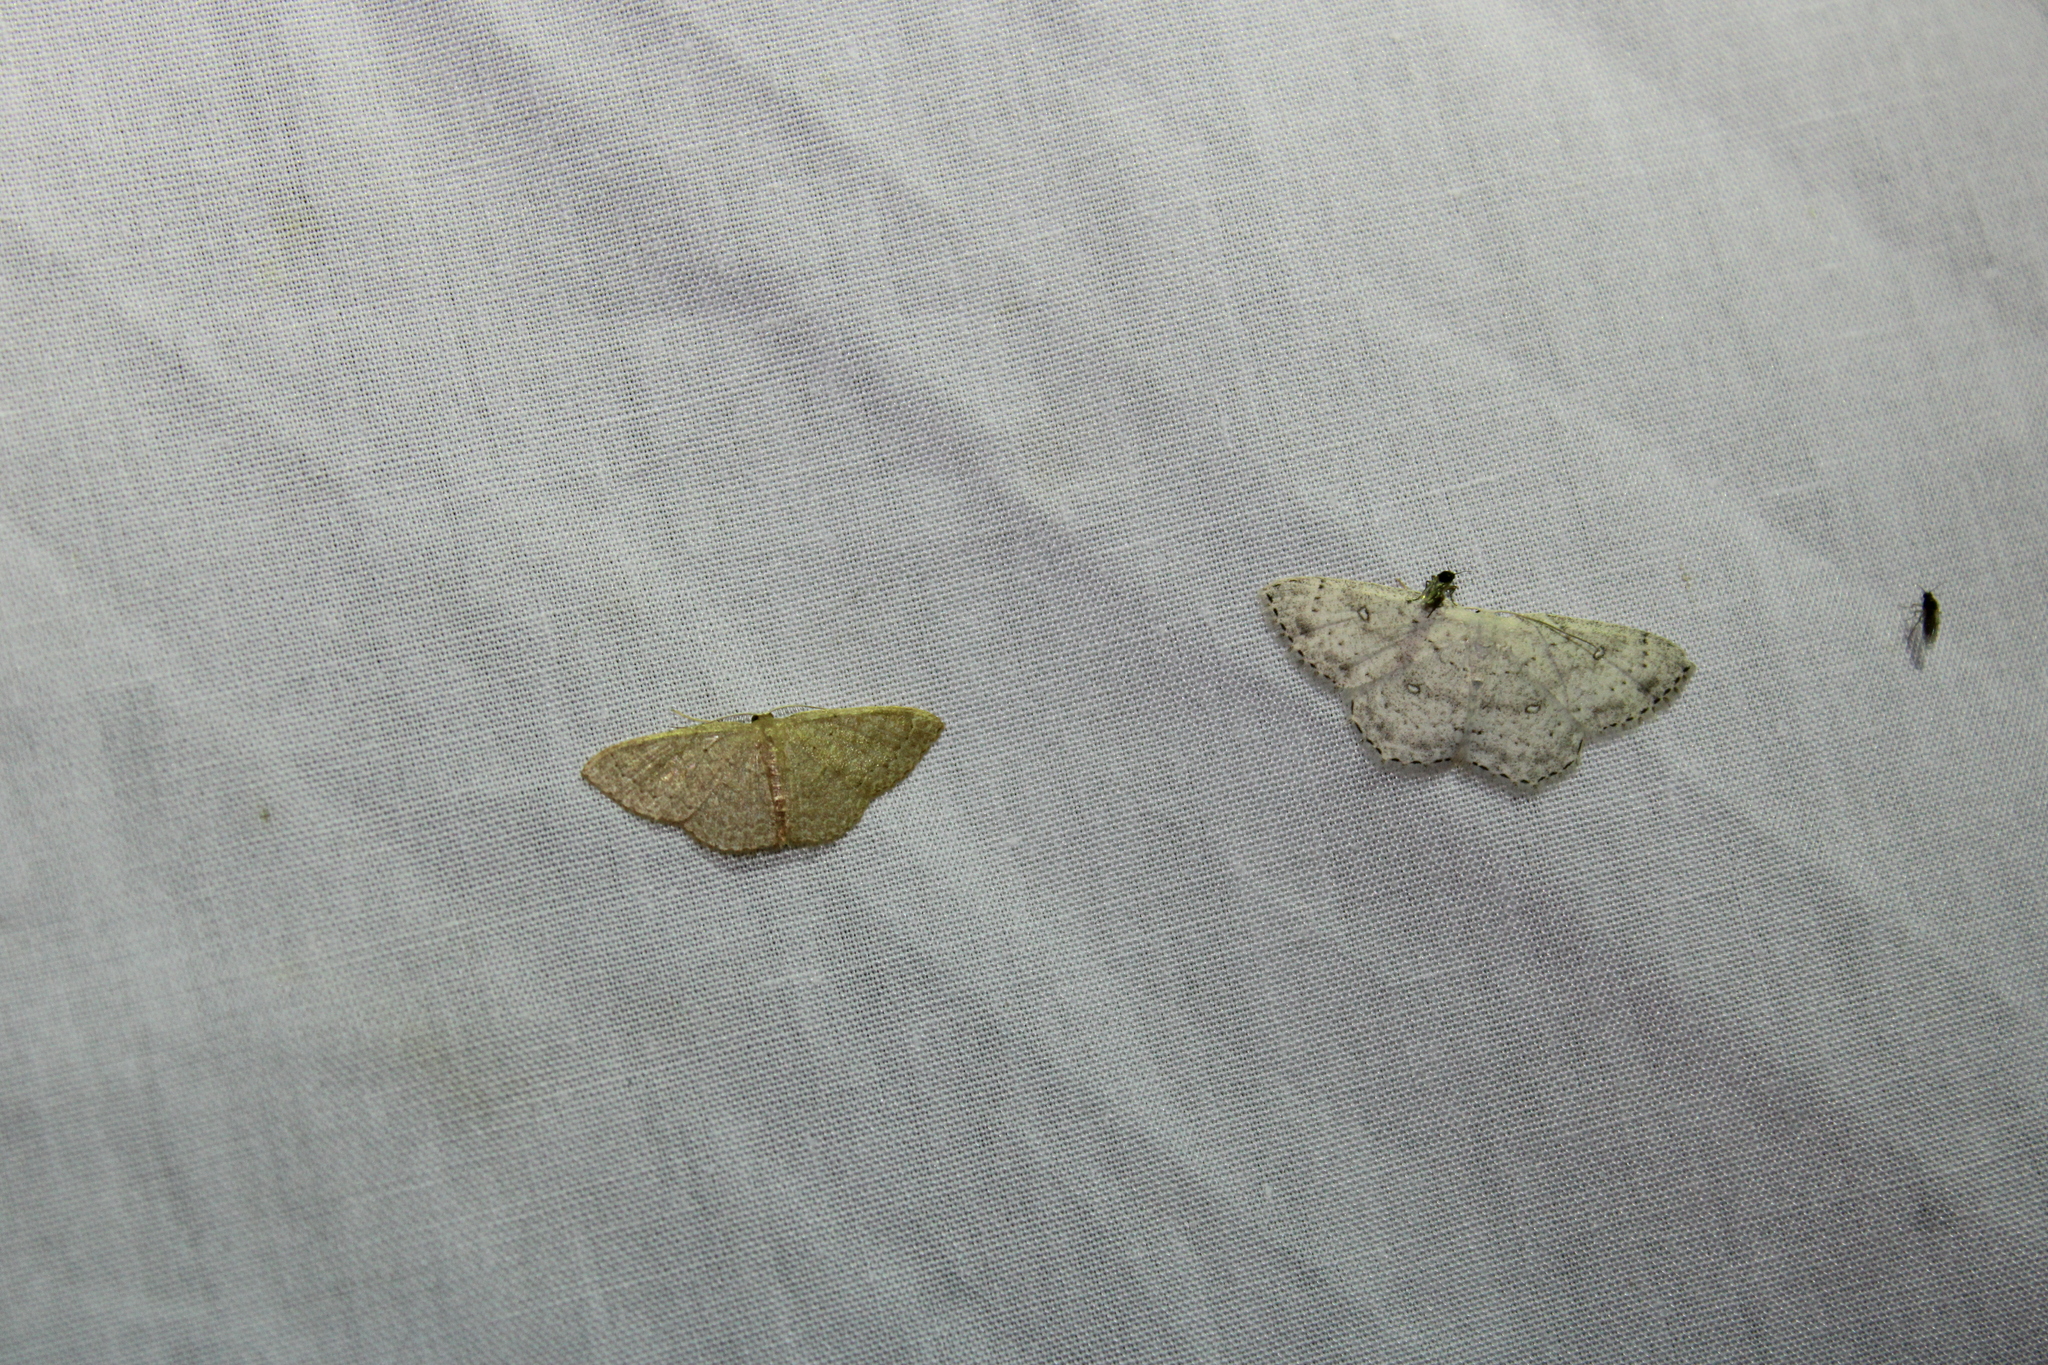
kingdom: Animalia
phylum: Arthropoda
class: Insecta
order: Lepidoptera
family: Geometridae
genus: Pleuroprucha
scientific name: Pleuroprucha insulsaria
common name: Common tan wave
